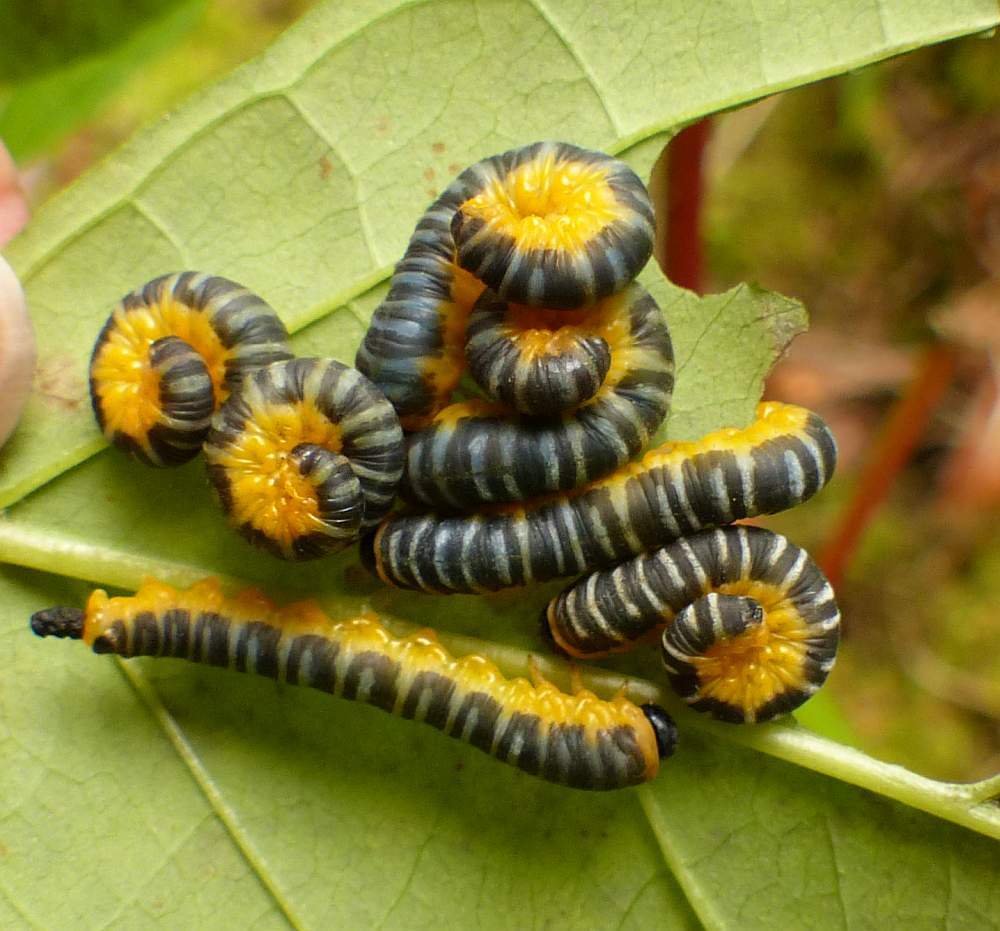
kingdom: Animalia
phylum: Arthropoda
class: Insecta
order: Hymenoptera
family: Tenthredinidae
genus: Macremphytus
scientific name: Macremphytus
